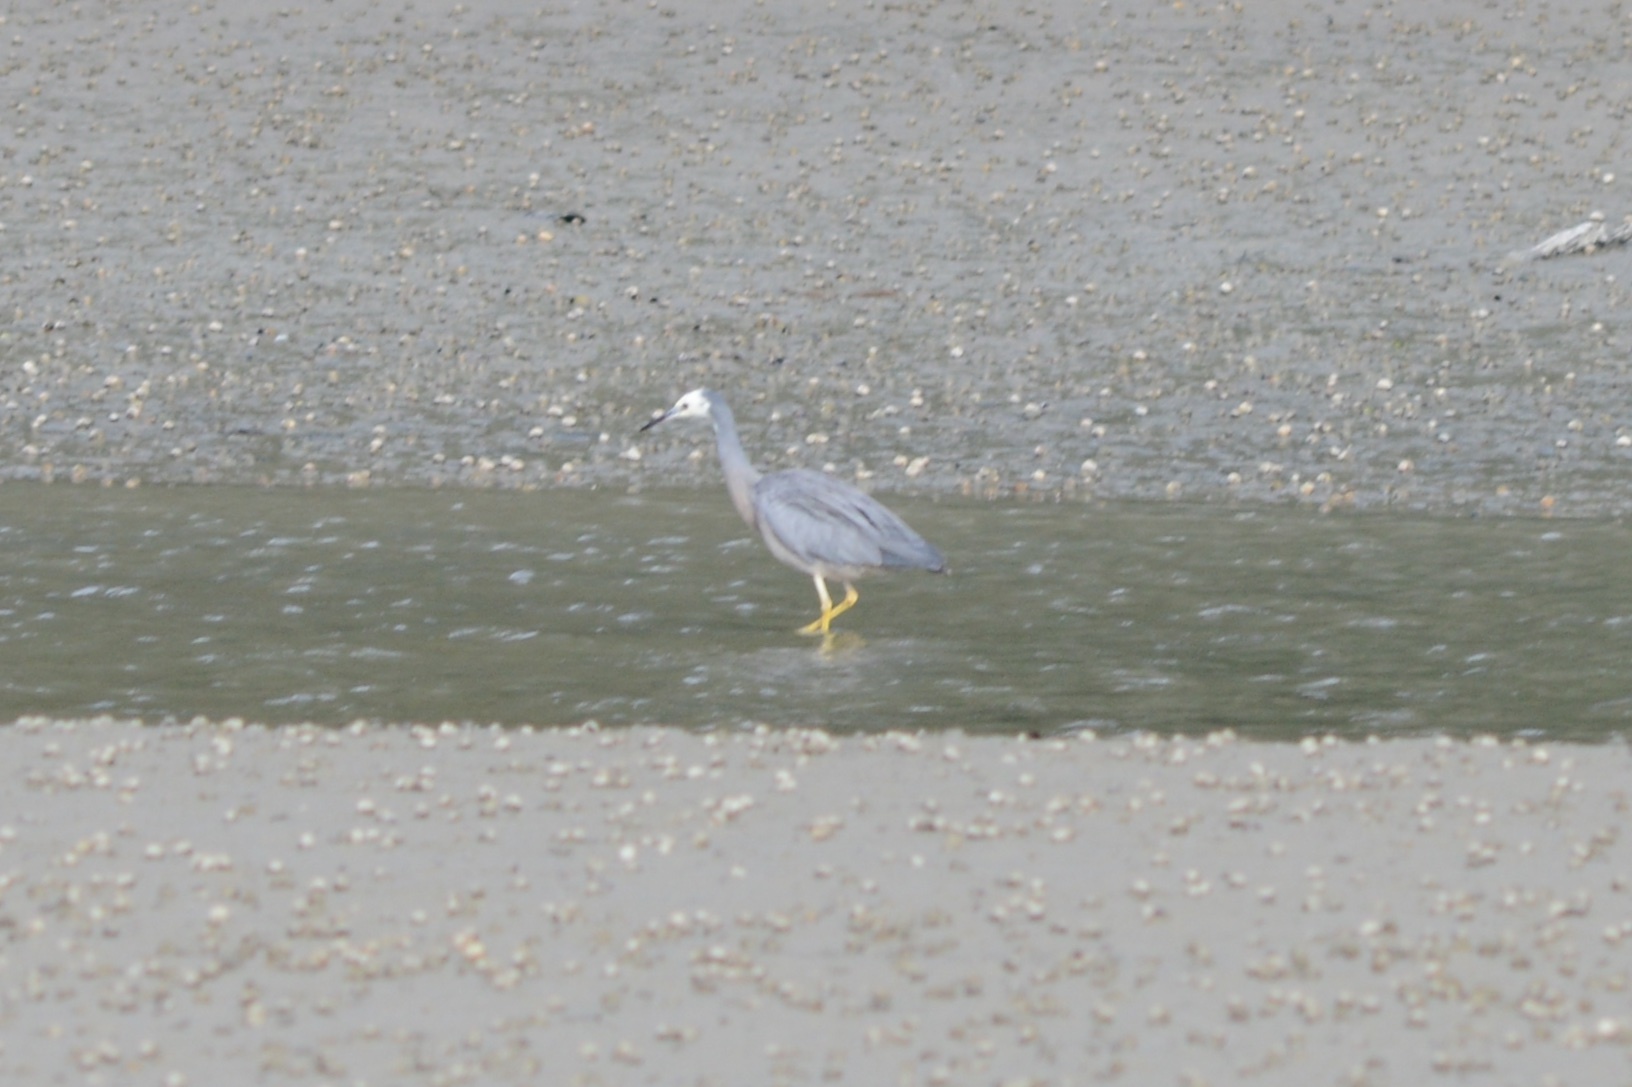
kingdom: Animalia
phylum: Chordata
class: Aves
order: Pelecaniformes
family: Ardeidae
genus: Egretta
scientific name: Egretta novaehollandiae
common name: White-faced heron
